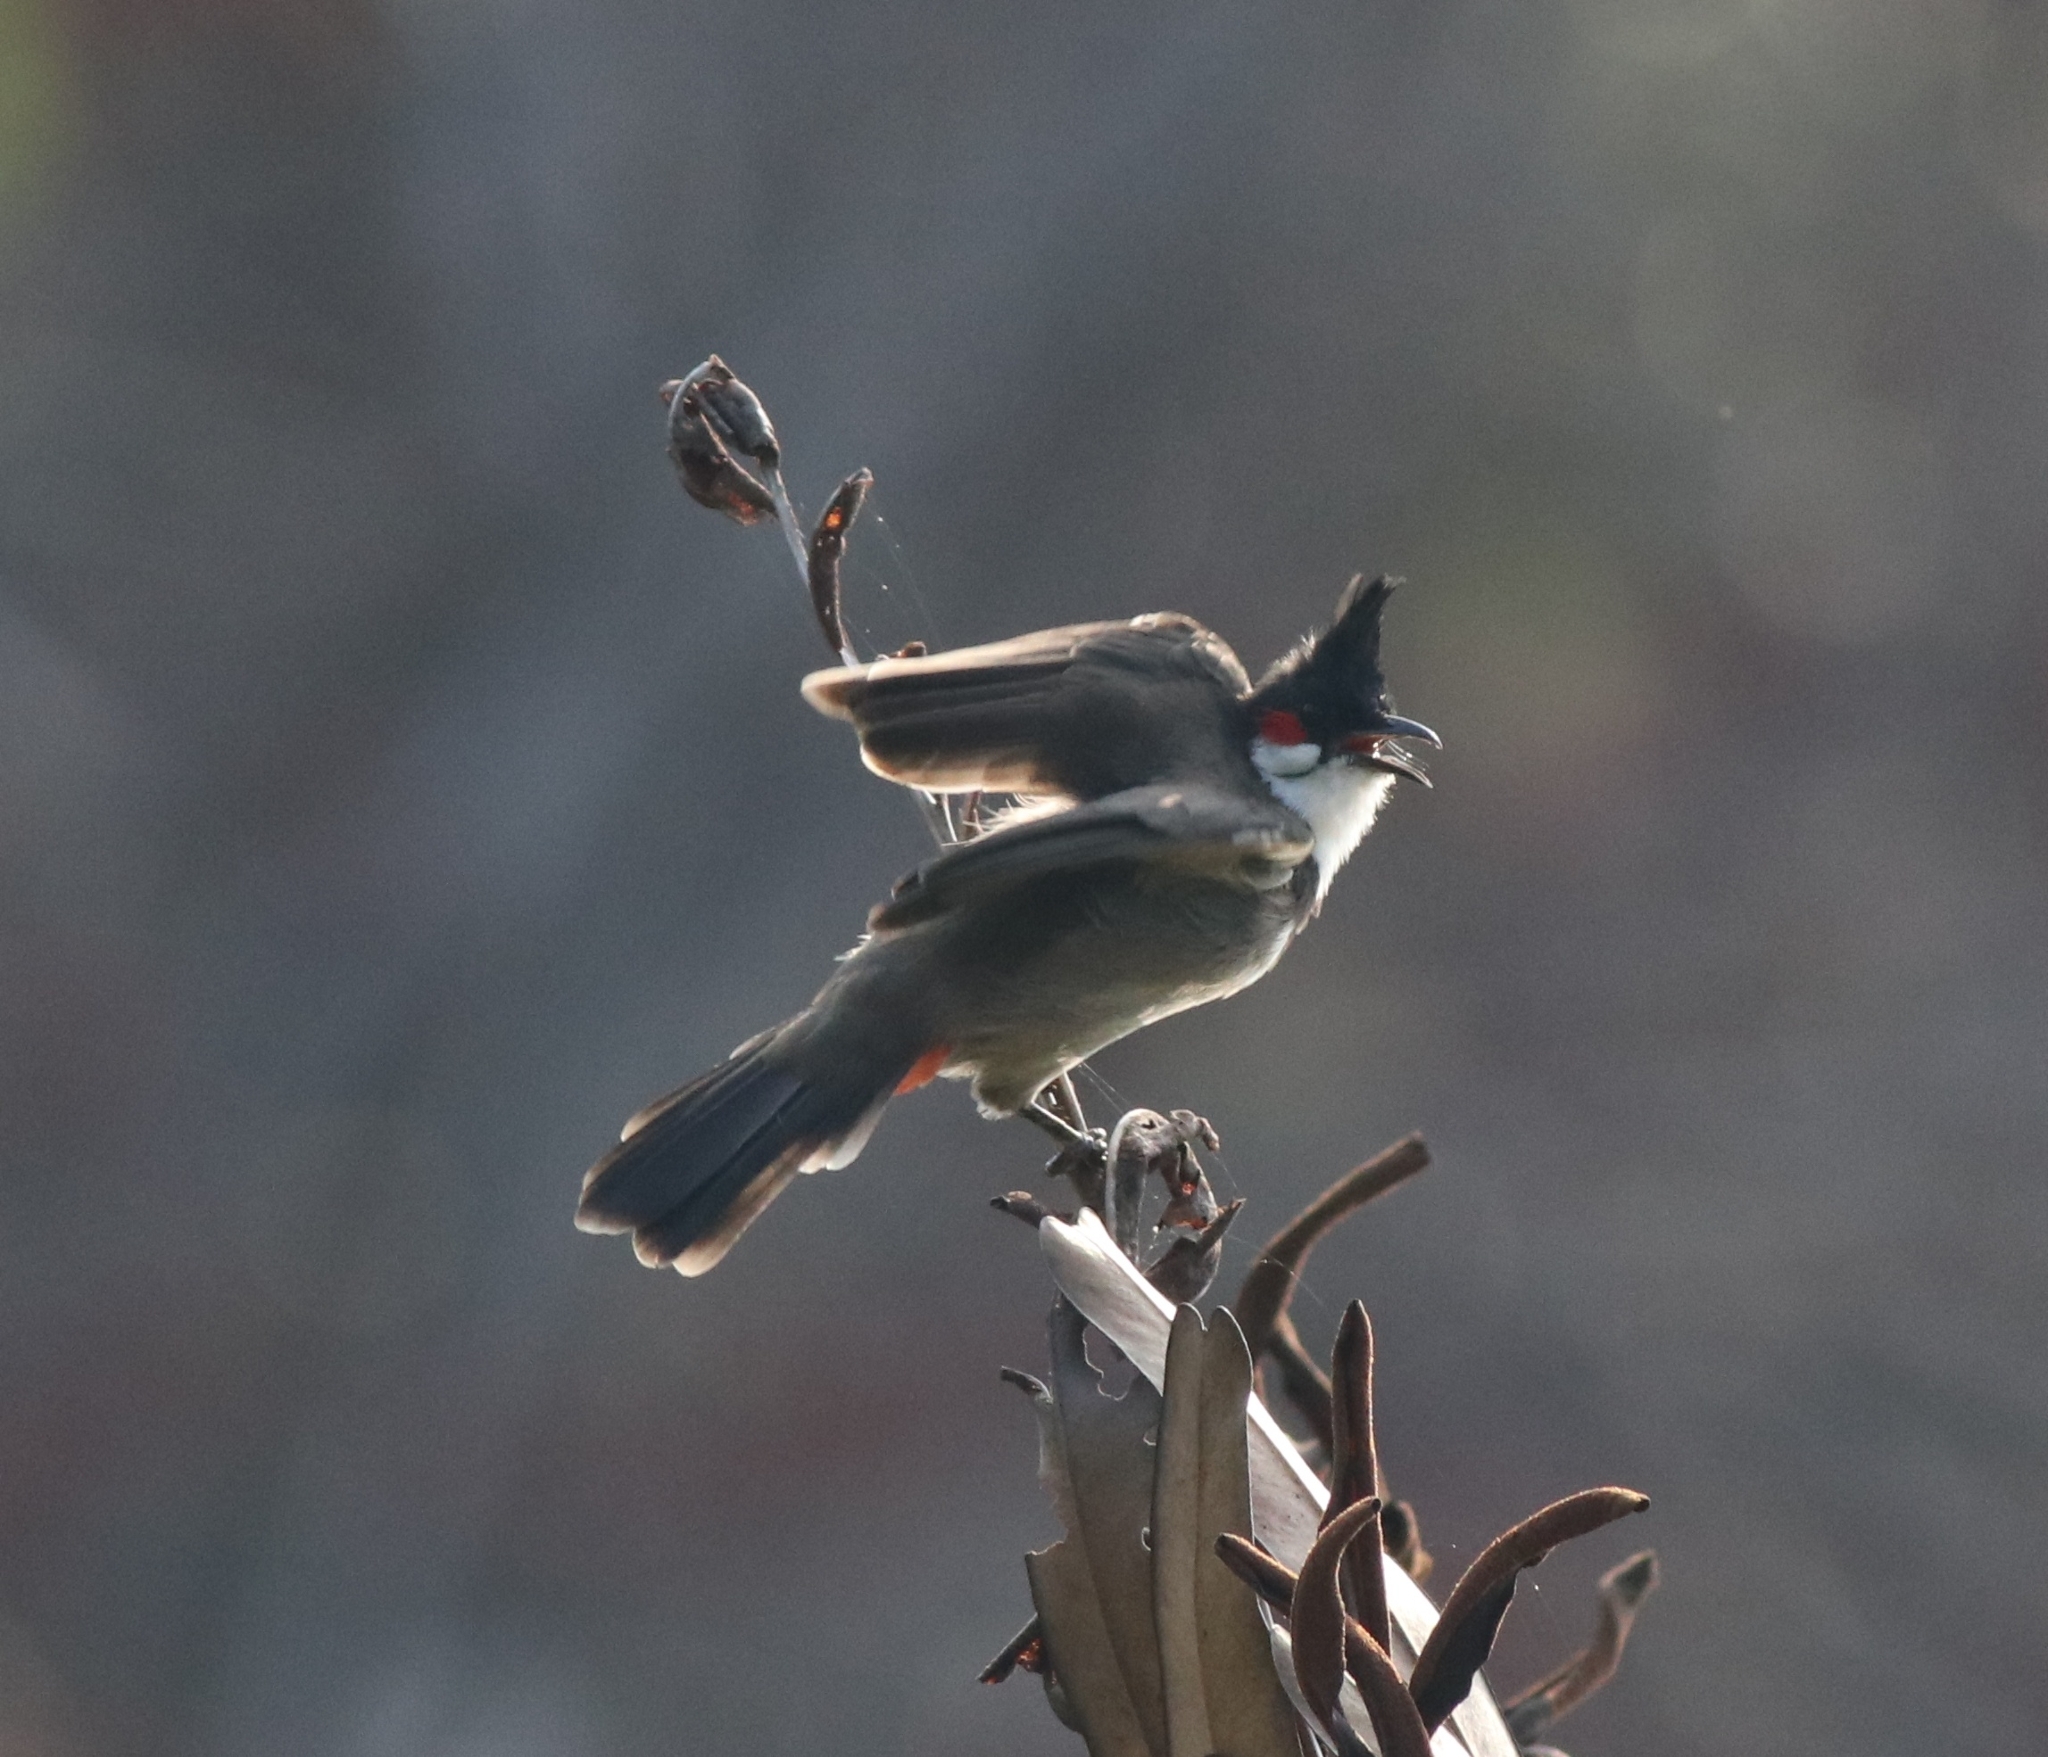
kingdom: Animalia
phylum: Chordata
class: Aves
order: Passeriformes
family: Pycnonotidae
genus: Pycnonotus
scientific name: Pycnonotus jocosus
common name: Red-whiskered bulbul
